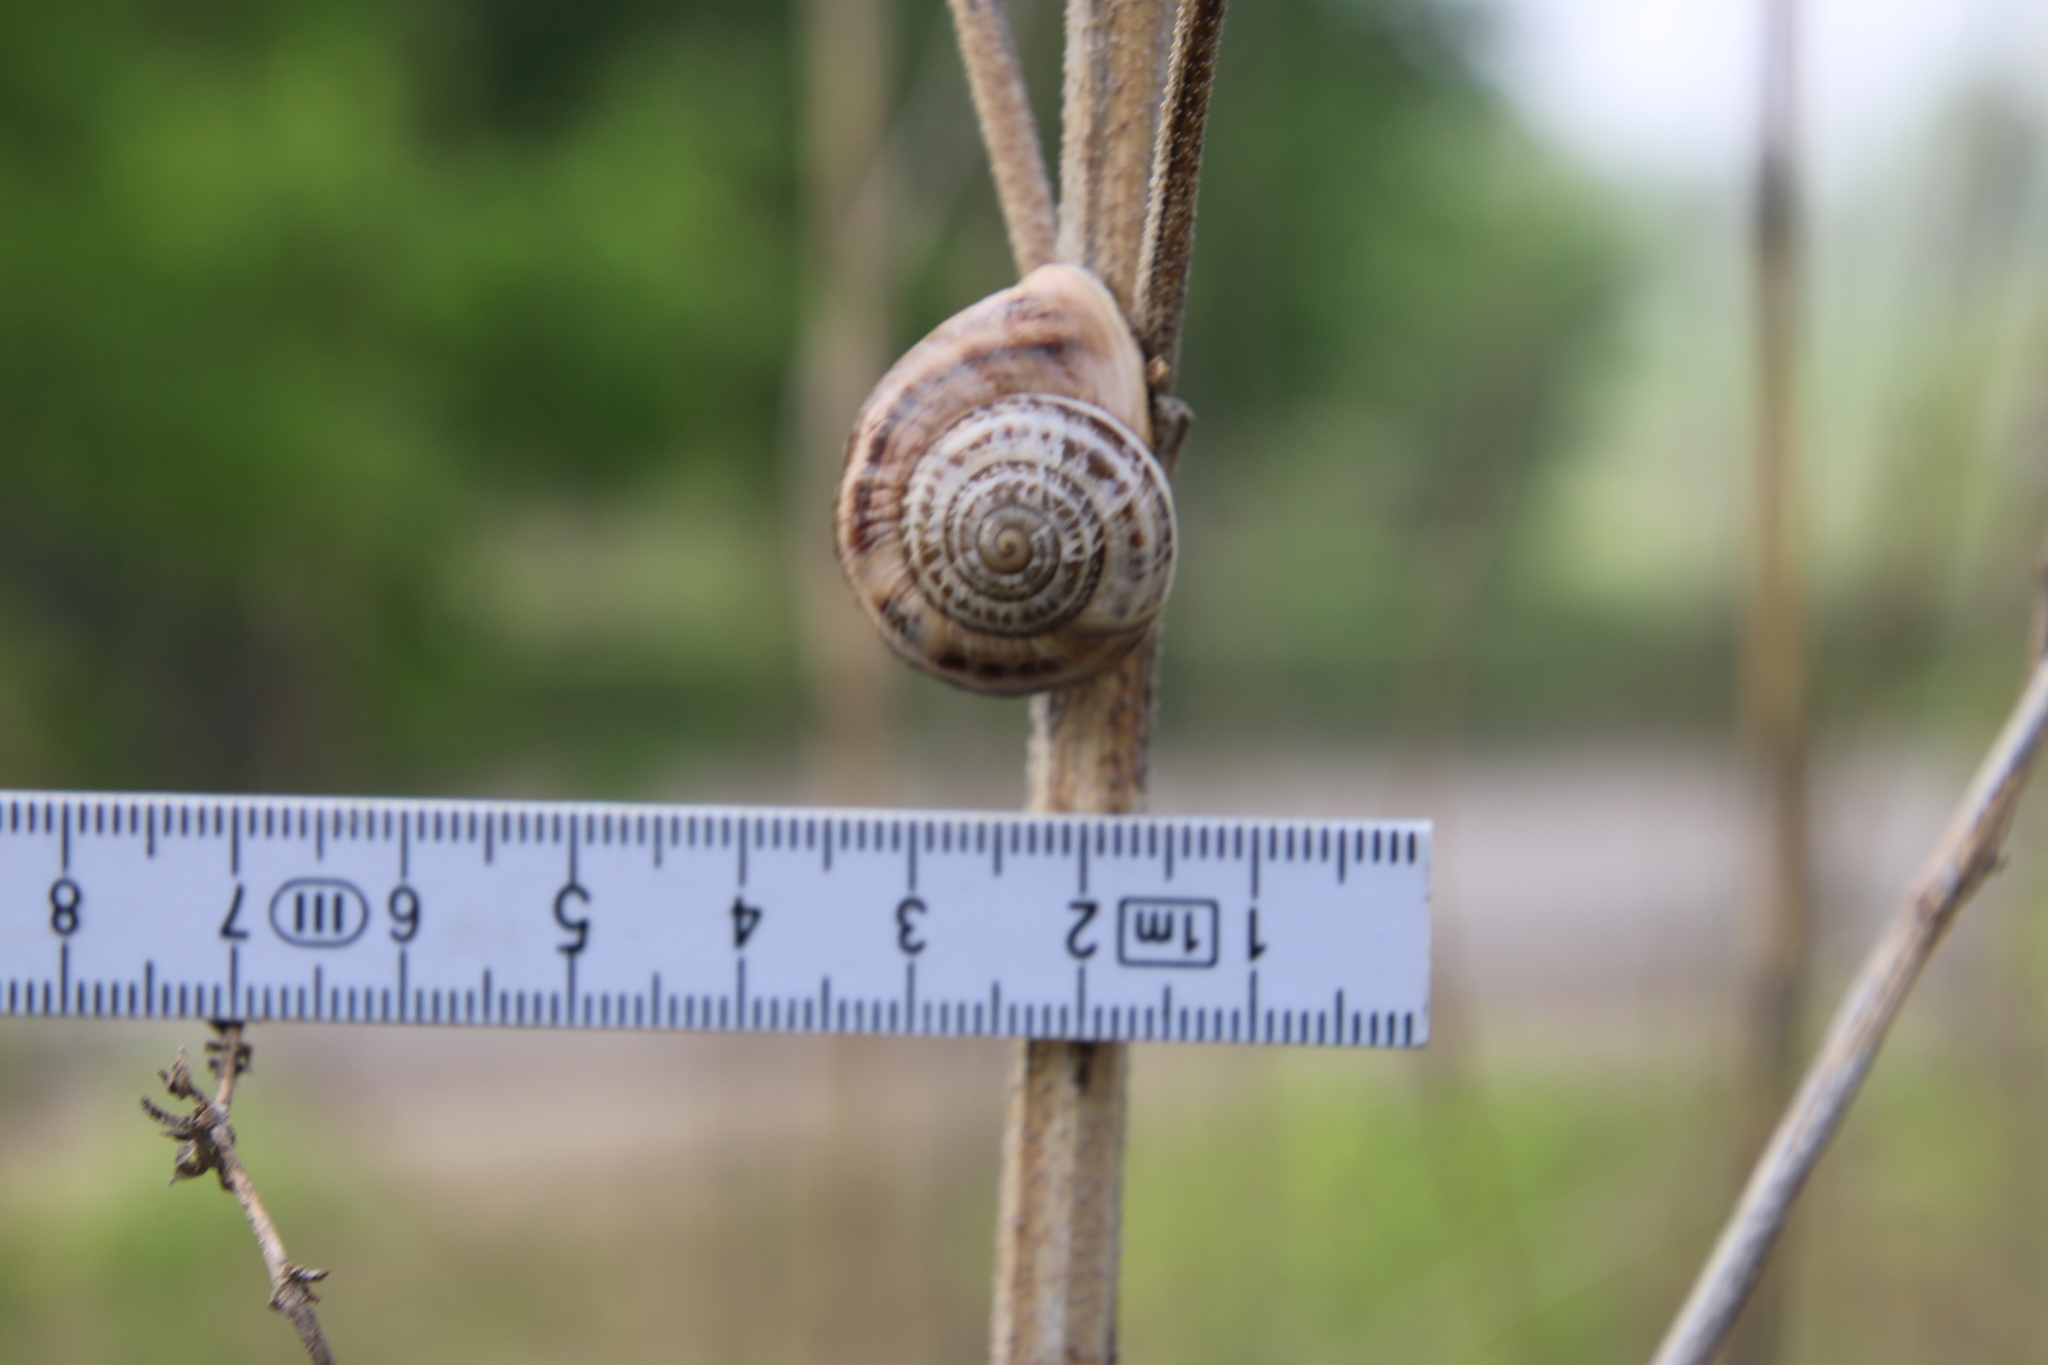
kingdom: Animalia
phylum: Mollusca
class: Gastropoda
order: Stylommatophora
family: Helicidae
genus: Otala
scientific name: Otala lactea
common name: Milk snail
